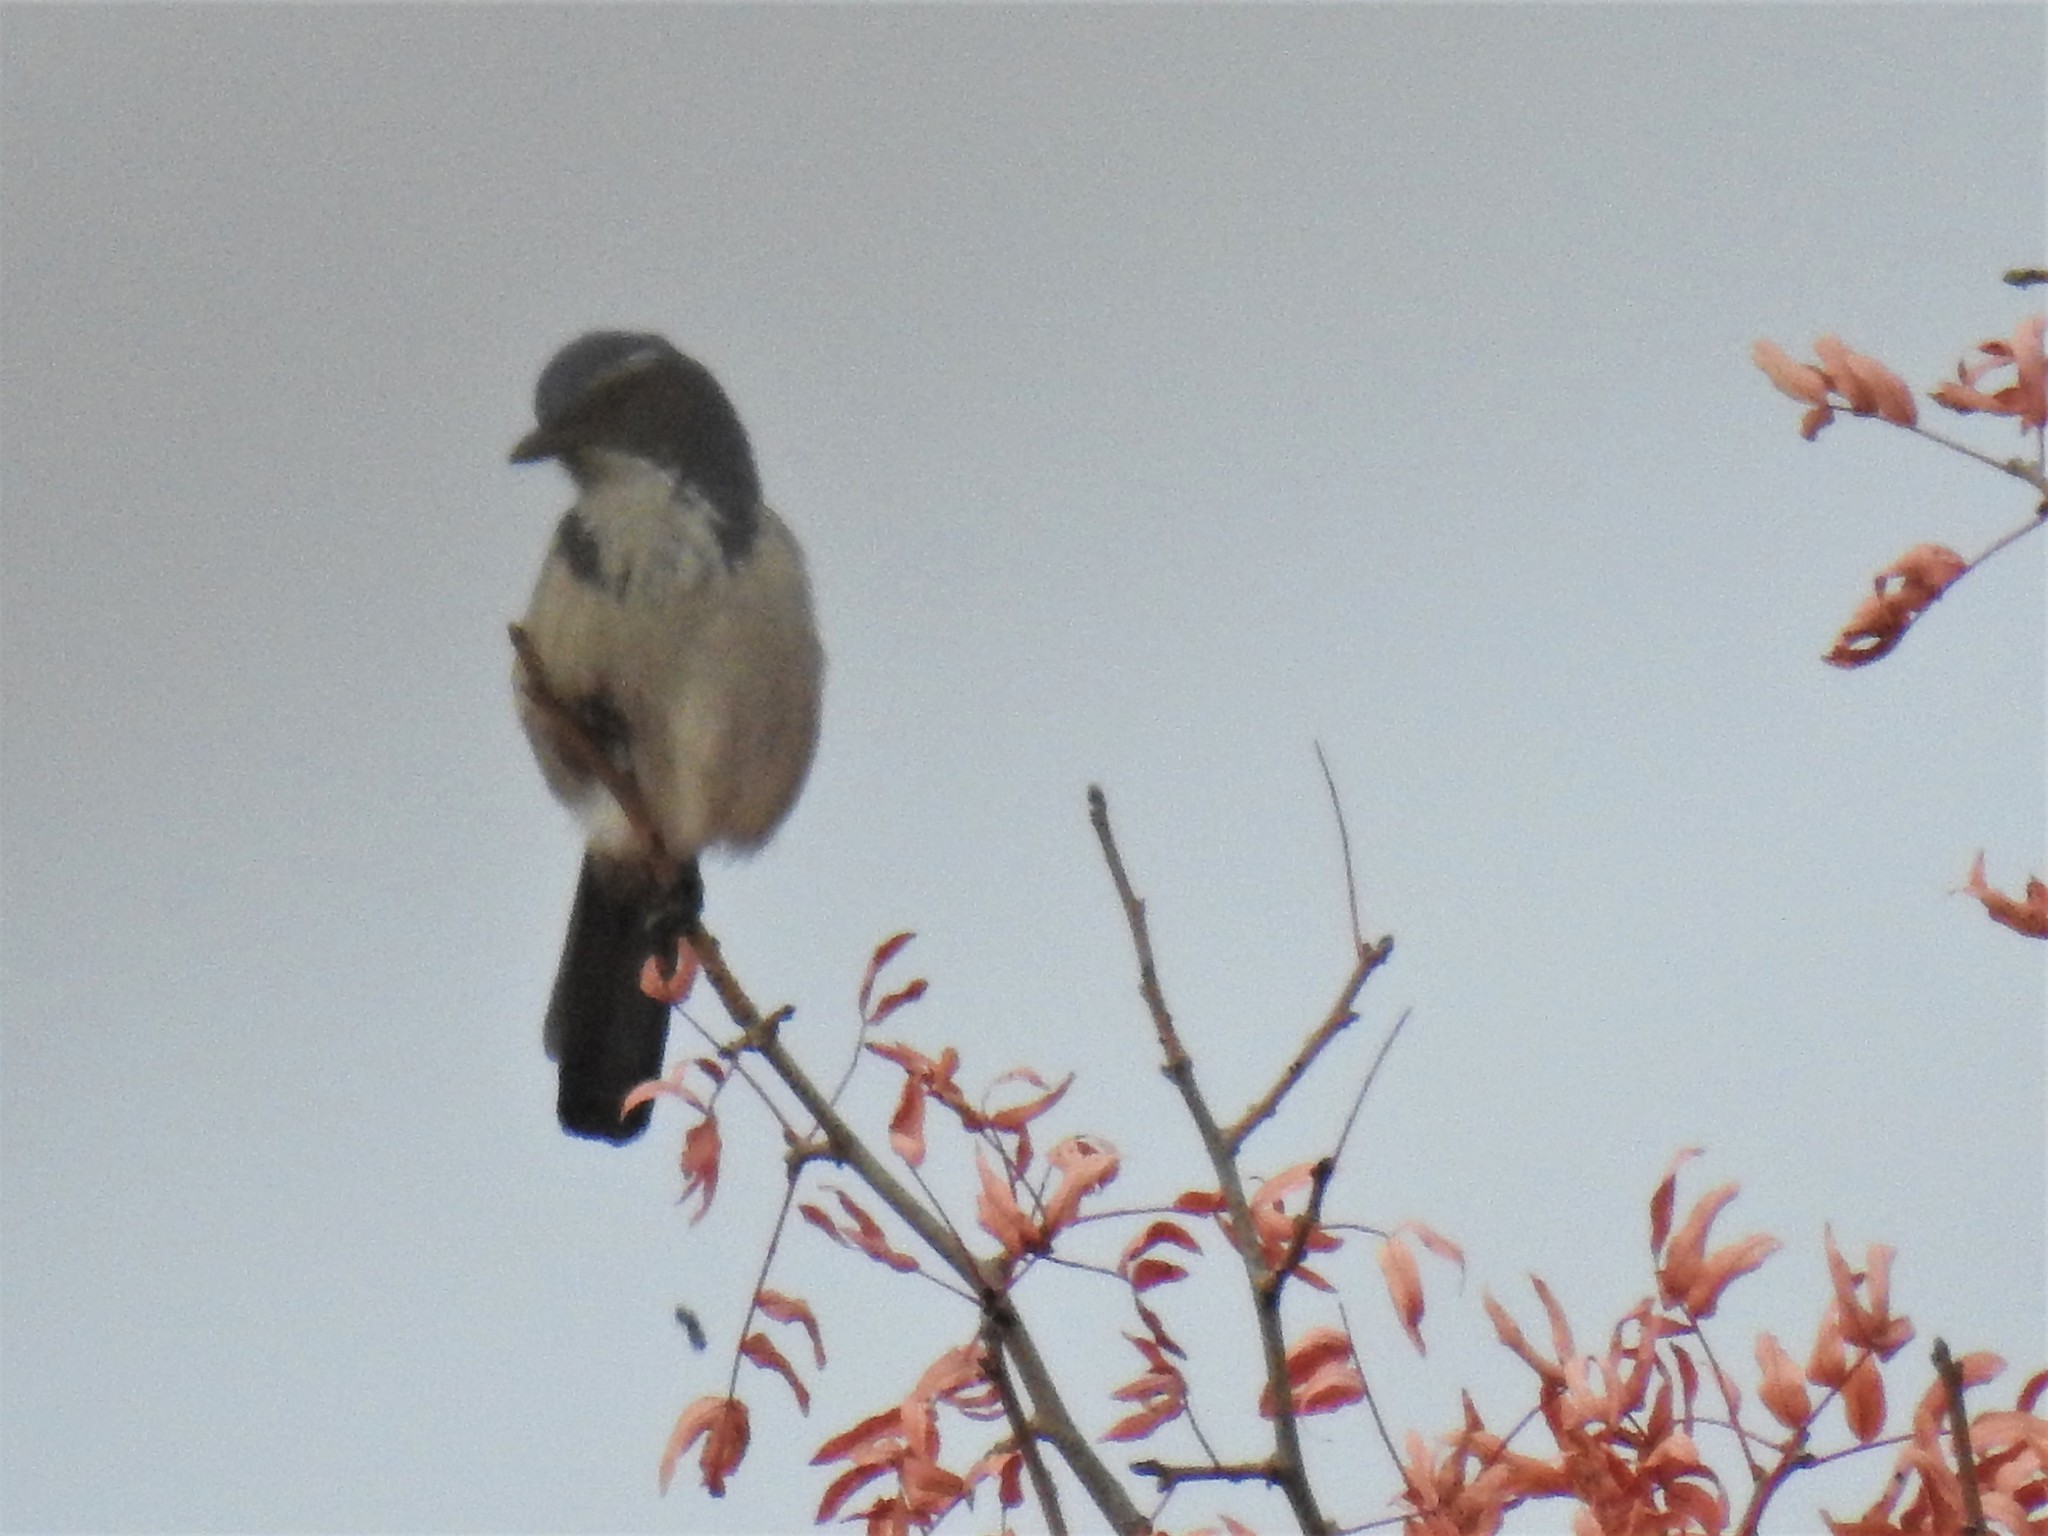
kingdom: Animalia
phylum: Chordata
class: Aves
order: Passeriformes
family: Corvidae
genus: Aphelocoma
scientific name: Aphelocoma californica
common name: California scrub-jay
